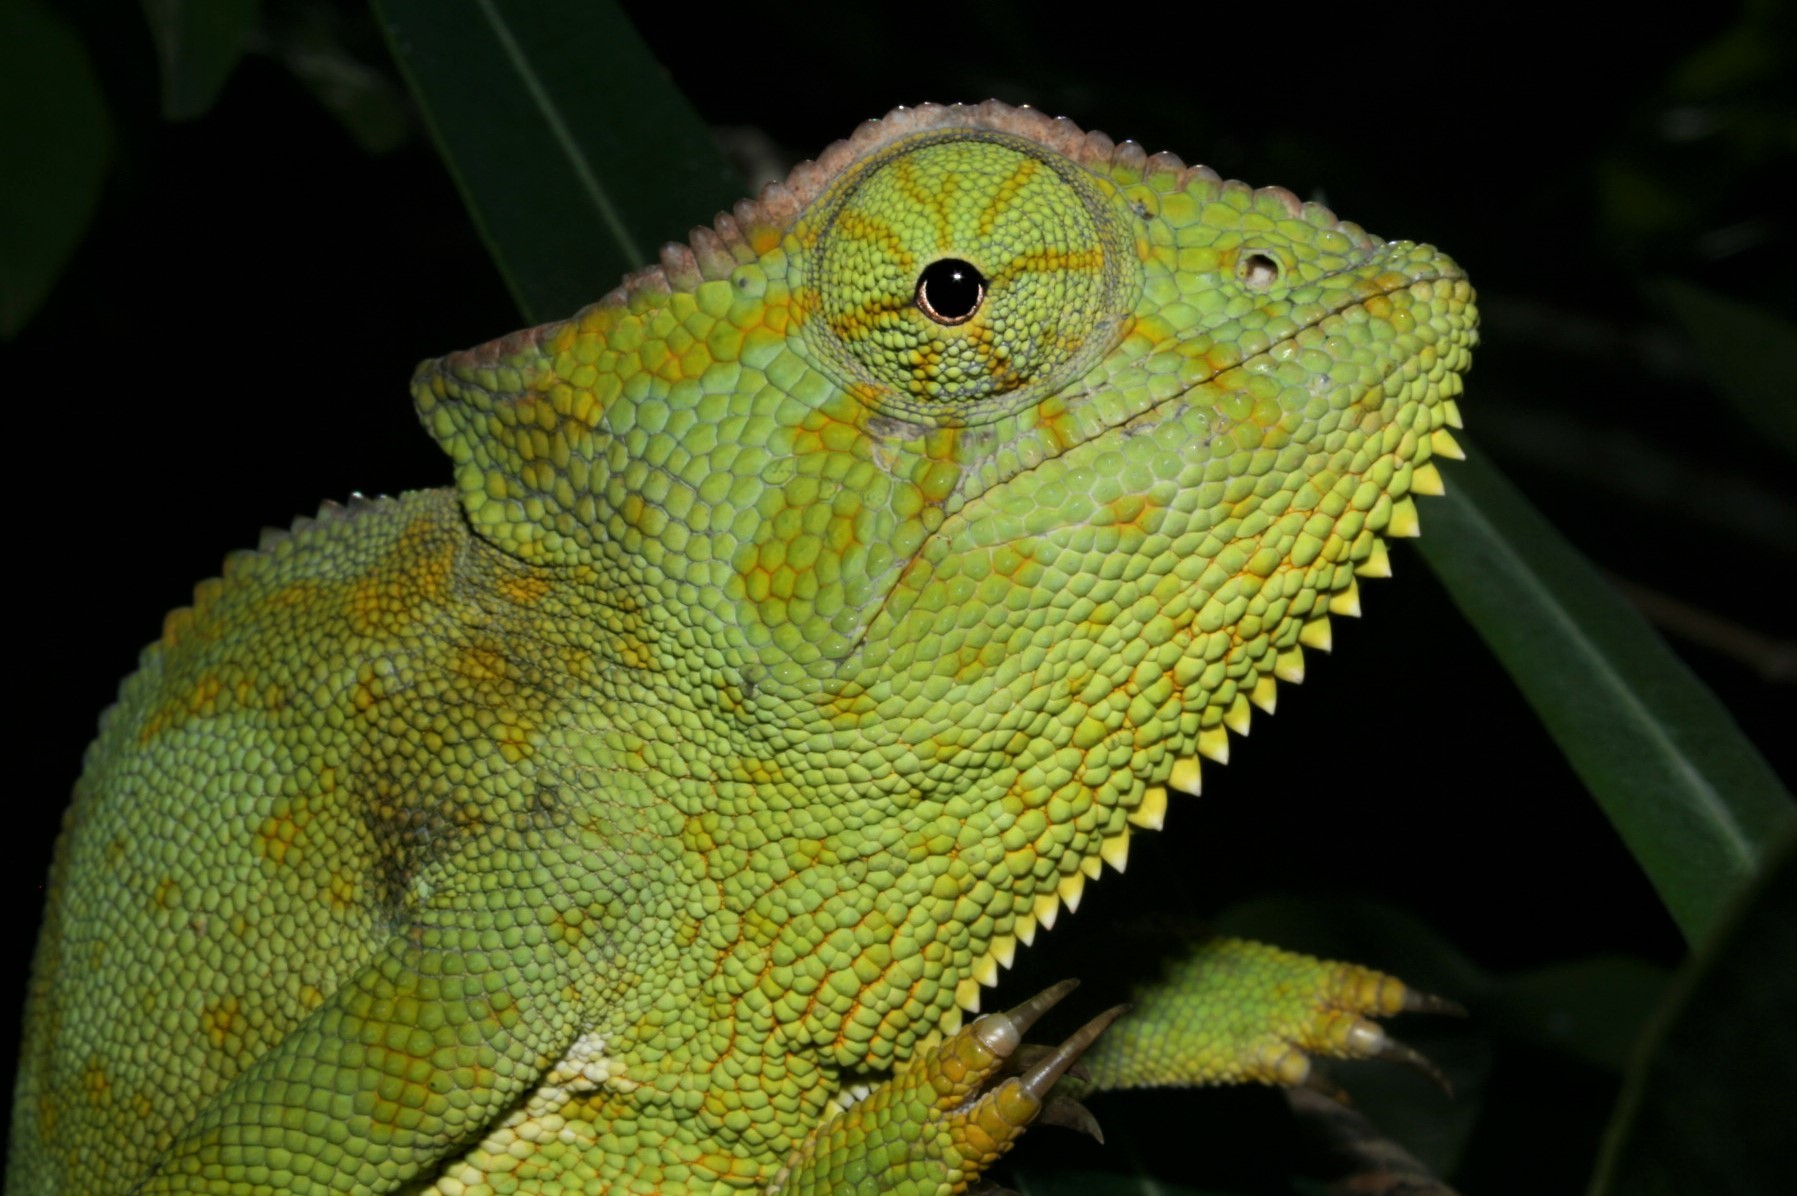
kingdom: Animalia
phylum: Chordata
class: Squamata
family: Chamaeleonidae
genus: Chamaeleo
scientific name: Chamaeleo gracilis
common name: Graceful chameleon
